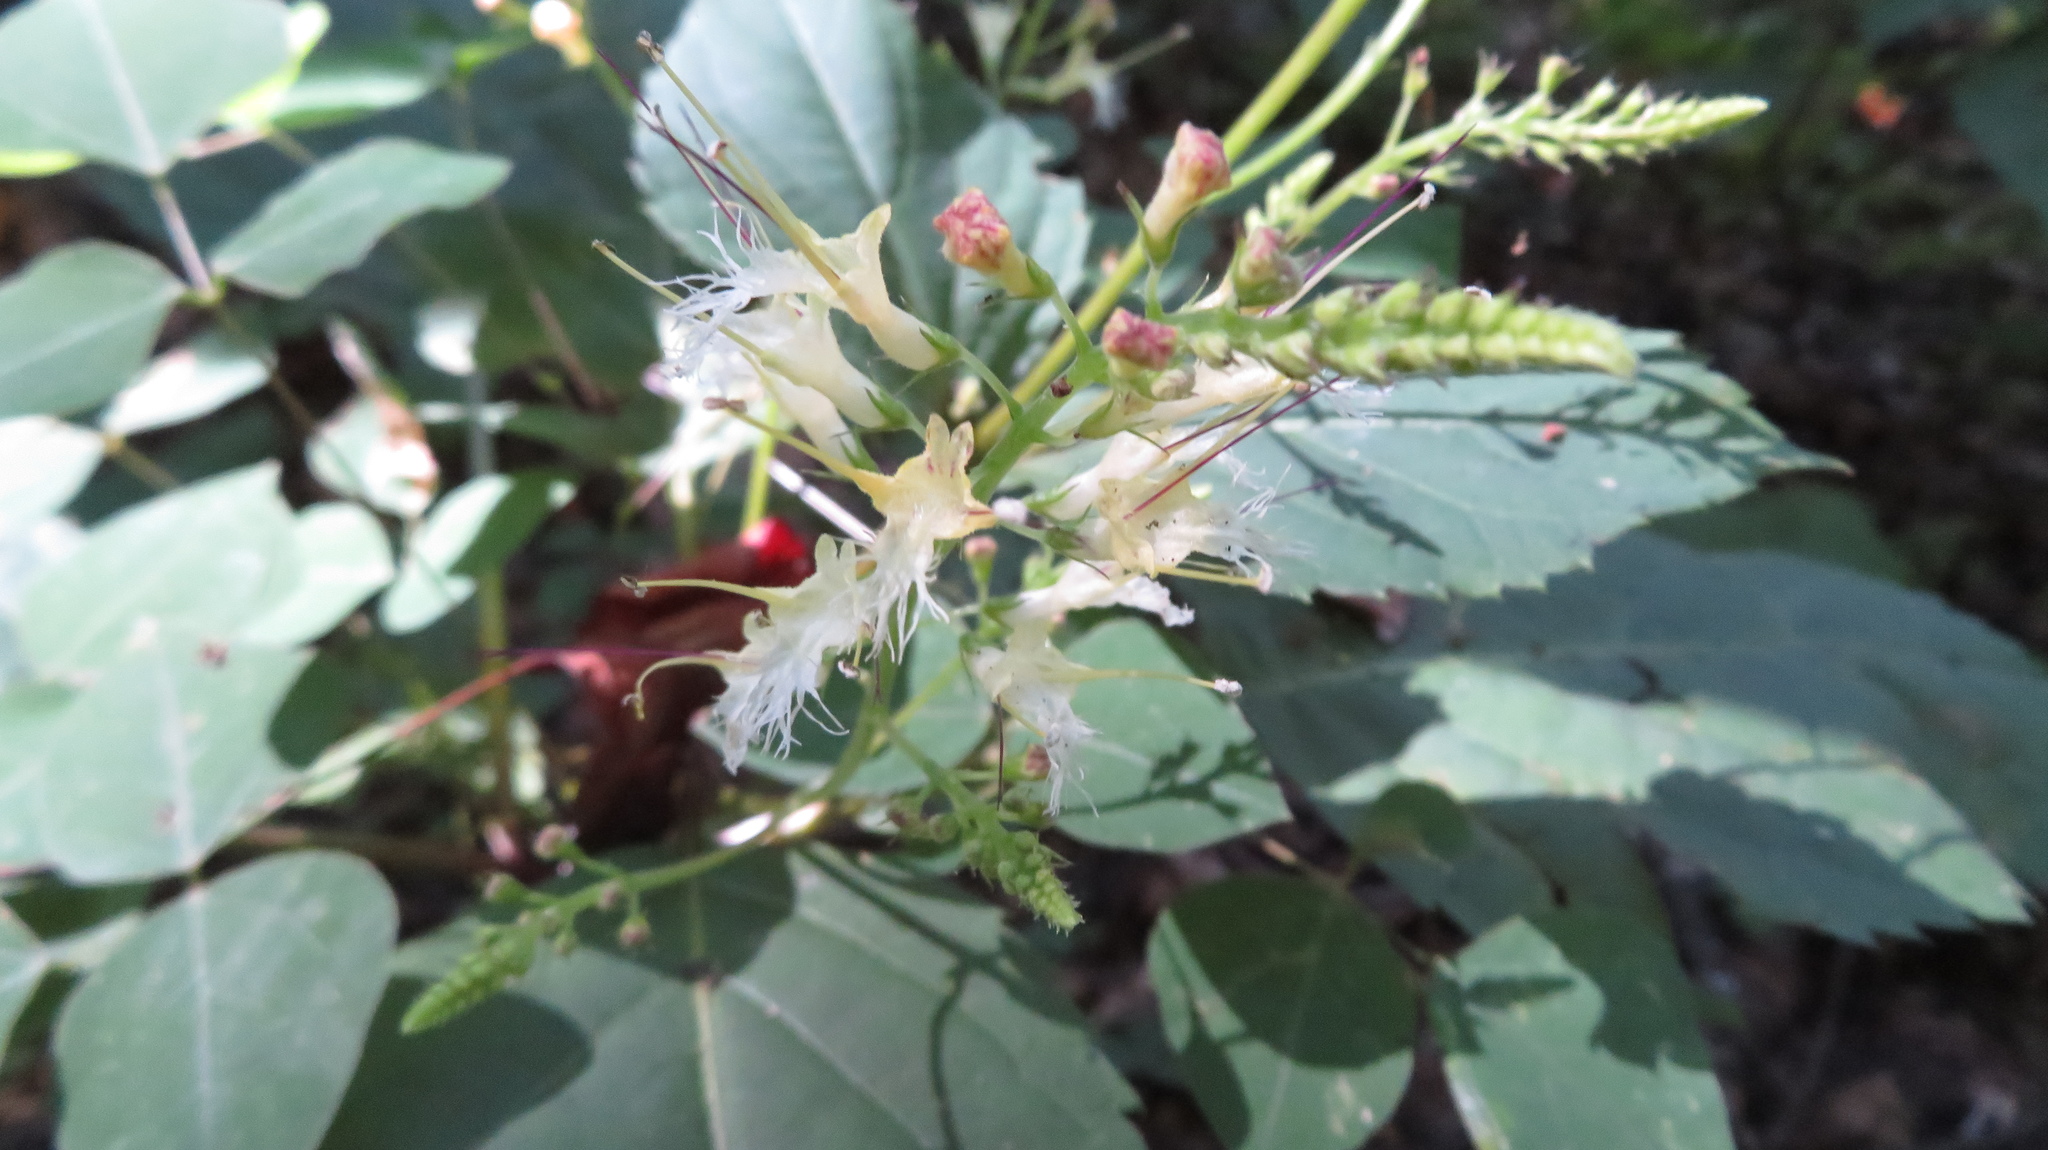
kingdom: Plantae
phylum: Tracheophyta
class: Magnoliopsida
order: Lamiales
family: Lamiaceae
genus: Collinsonia
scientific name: Collinsonia canadensis
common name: Northern horsebalm
